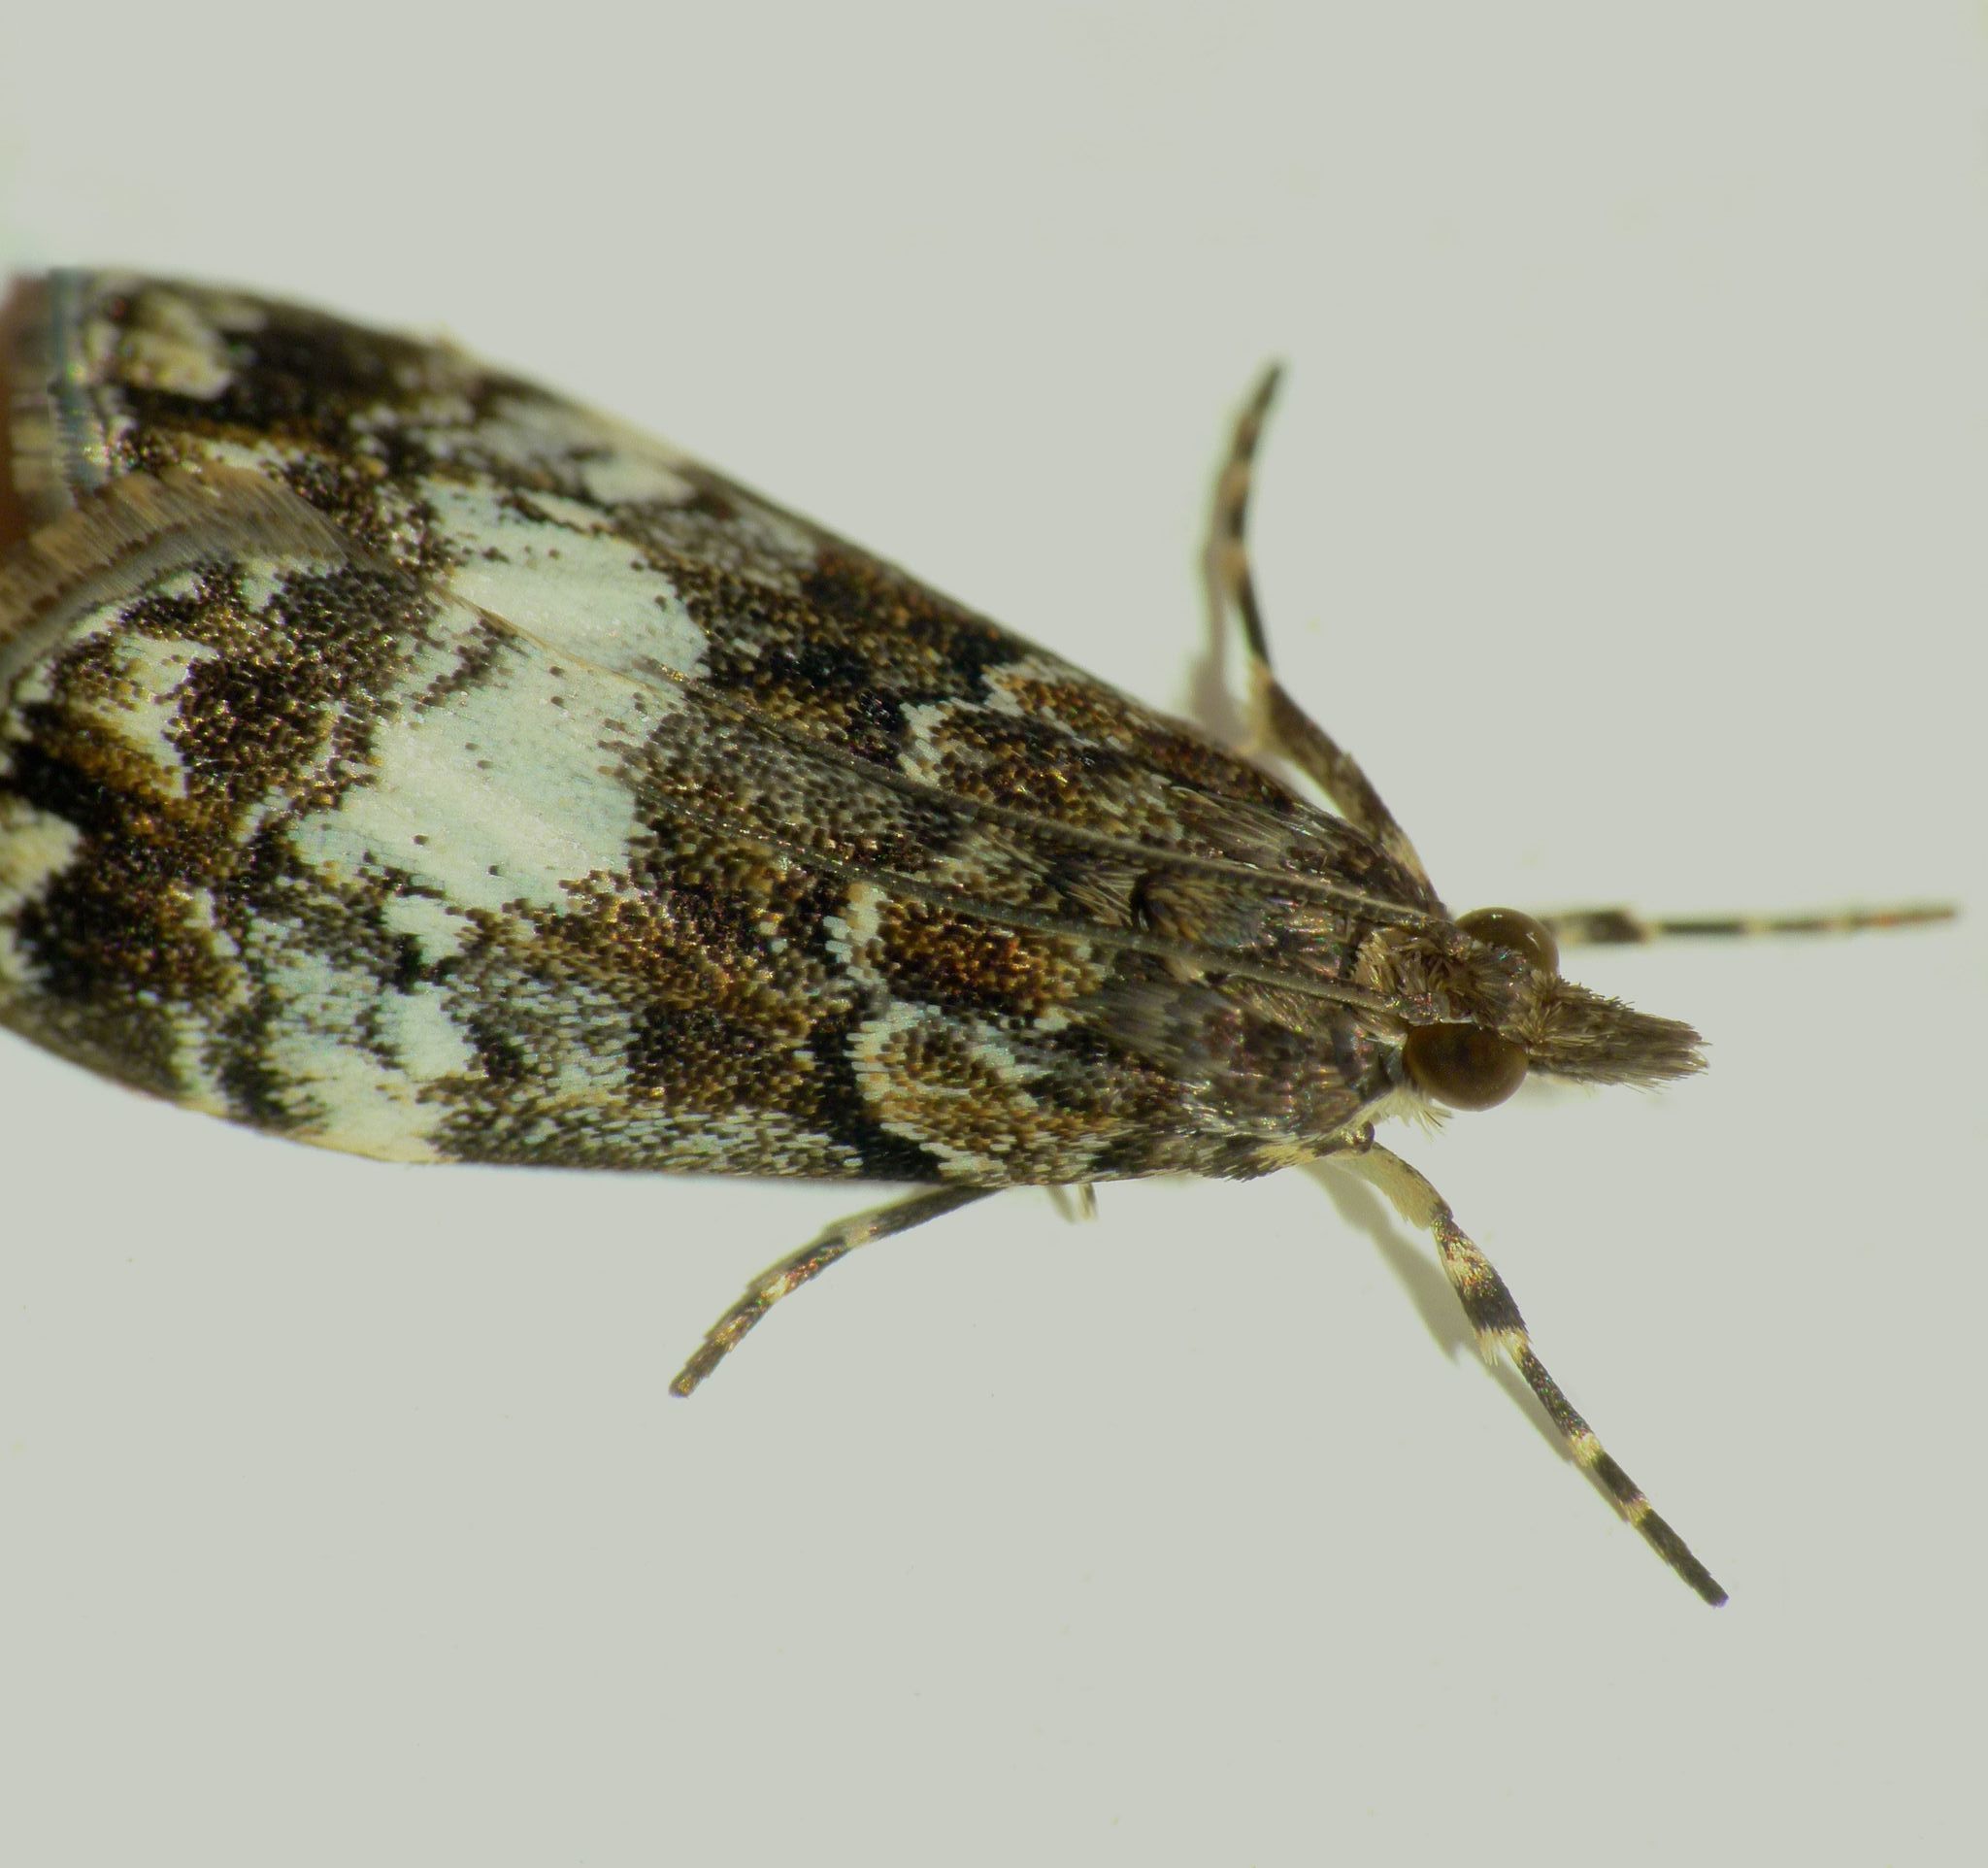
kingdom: Animalia
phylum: Arthropoda
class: Insecta
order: Lepidoptera
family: Crambidae
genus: Scoparia
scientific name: Scoparia minusculalis
